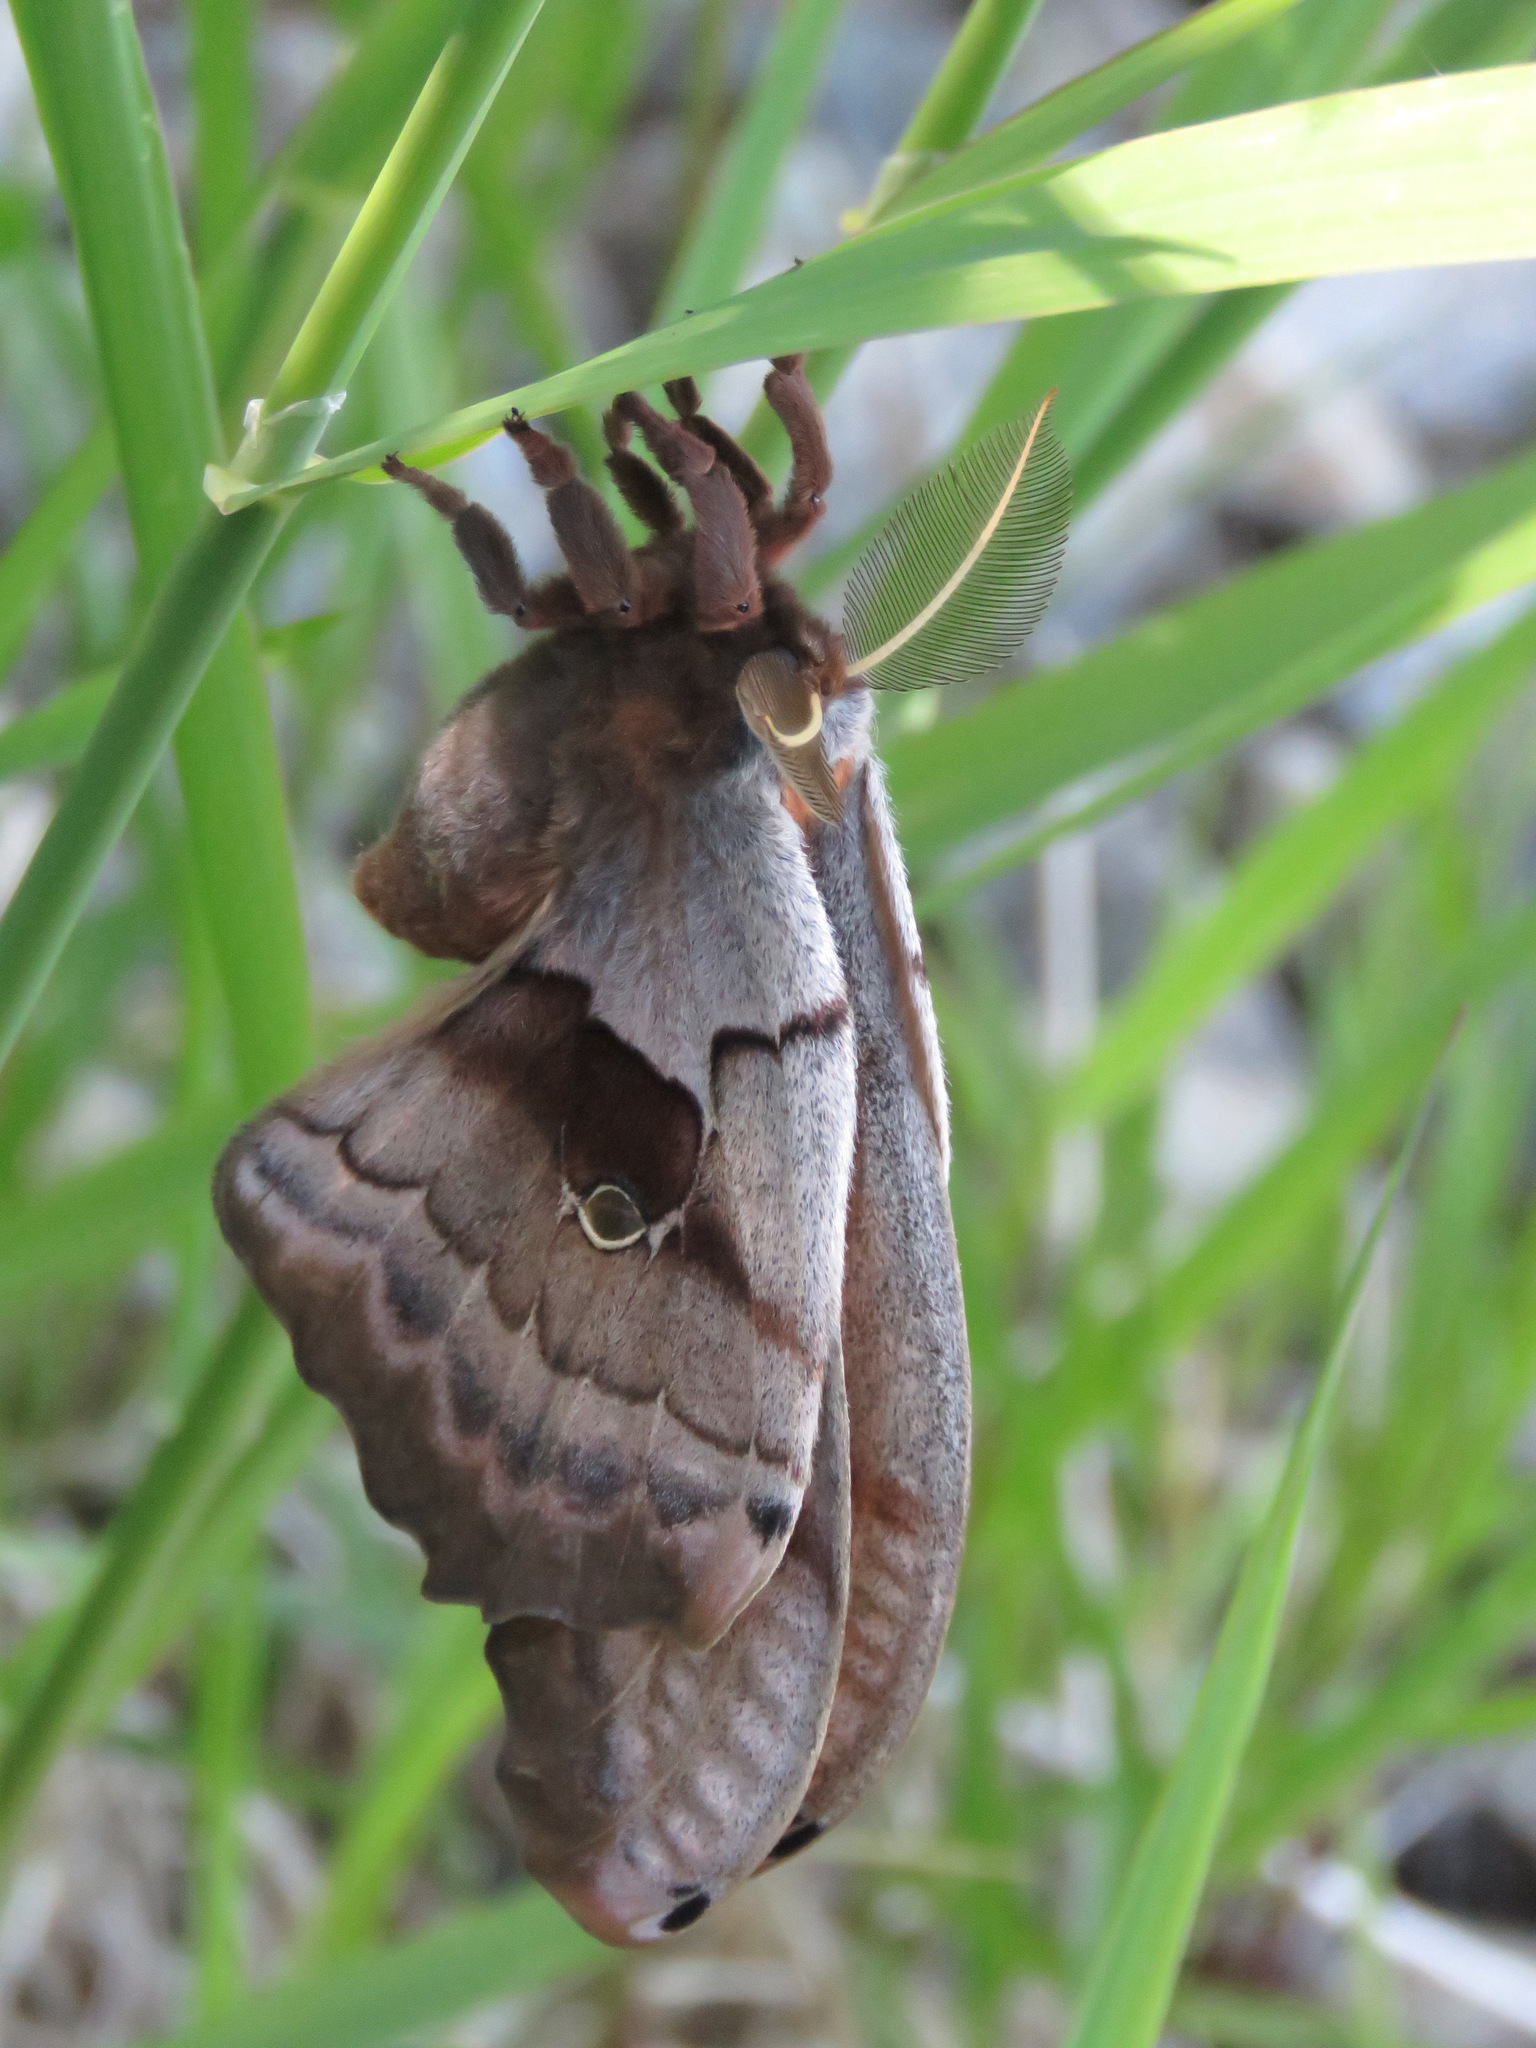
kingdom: Animalia
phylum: Arthropoda
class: Insecta
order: Lepidoptera
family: Saturniidae
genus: Antheraea
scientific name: Antheraea polyphemus
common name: Polyphemus moth
